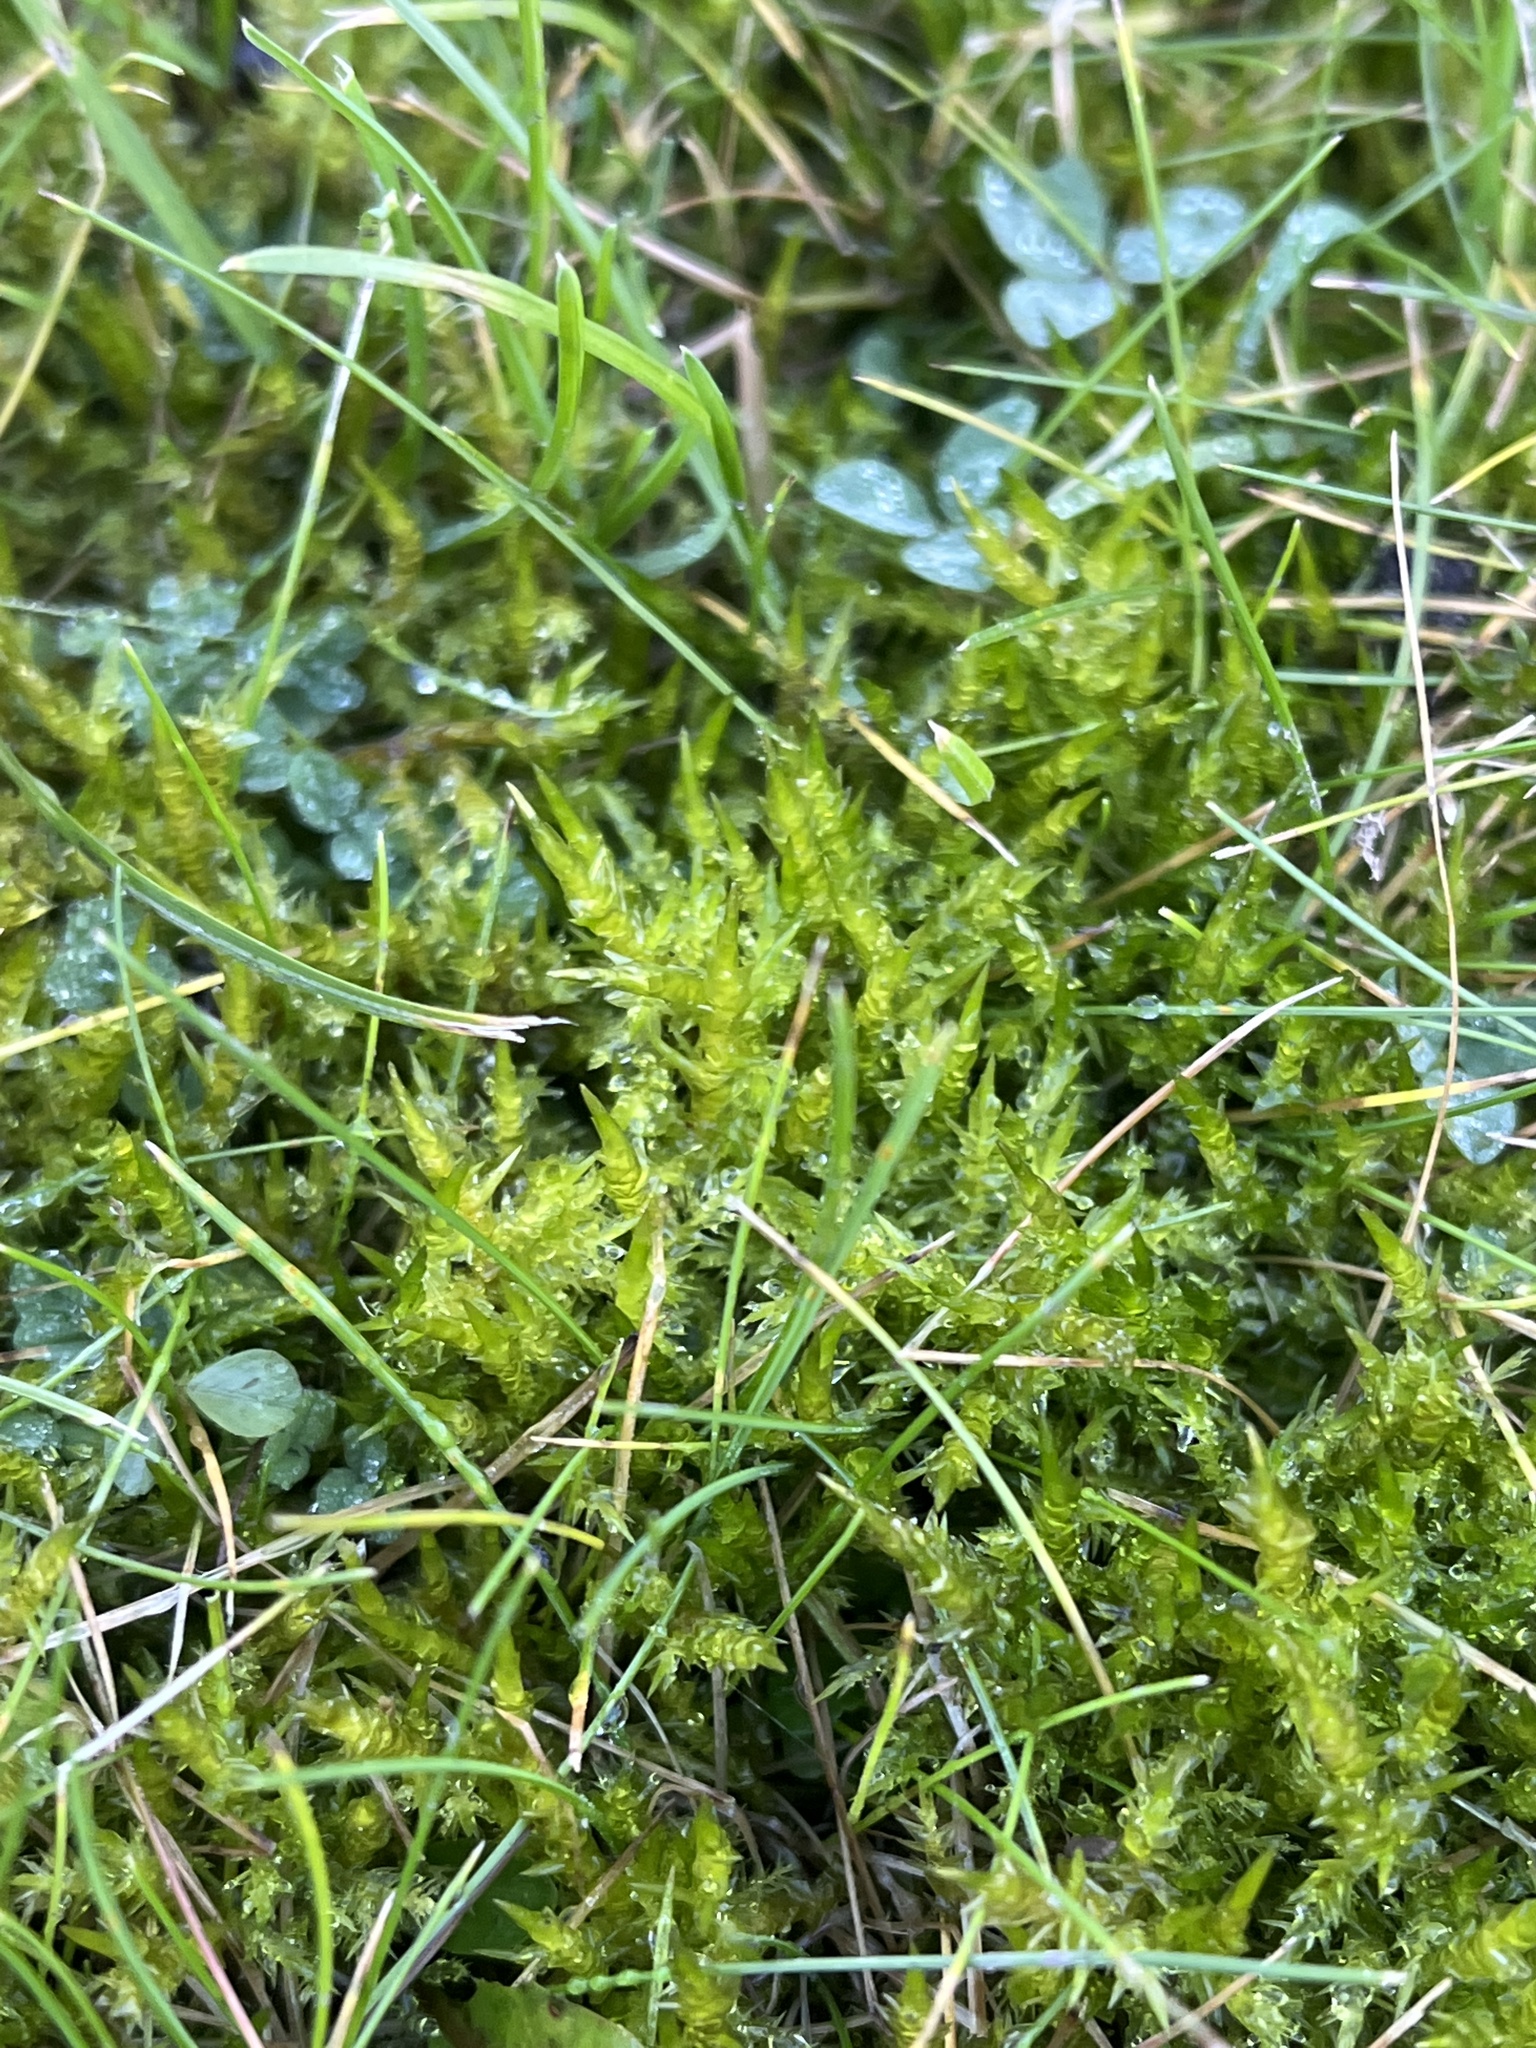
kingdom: Plantae
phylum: Bryophyta
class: Bryopsida
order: Hypnales
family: Pylaisiaceae
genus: Calliergonella
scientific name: Calliergonella cuspidata
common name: Common large wetland moss
